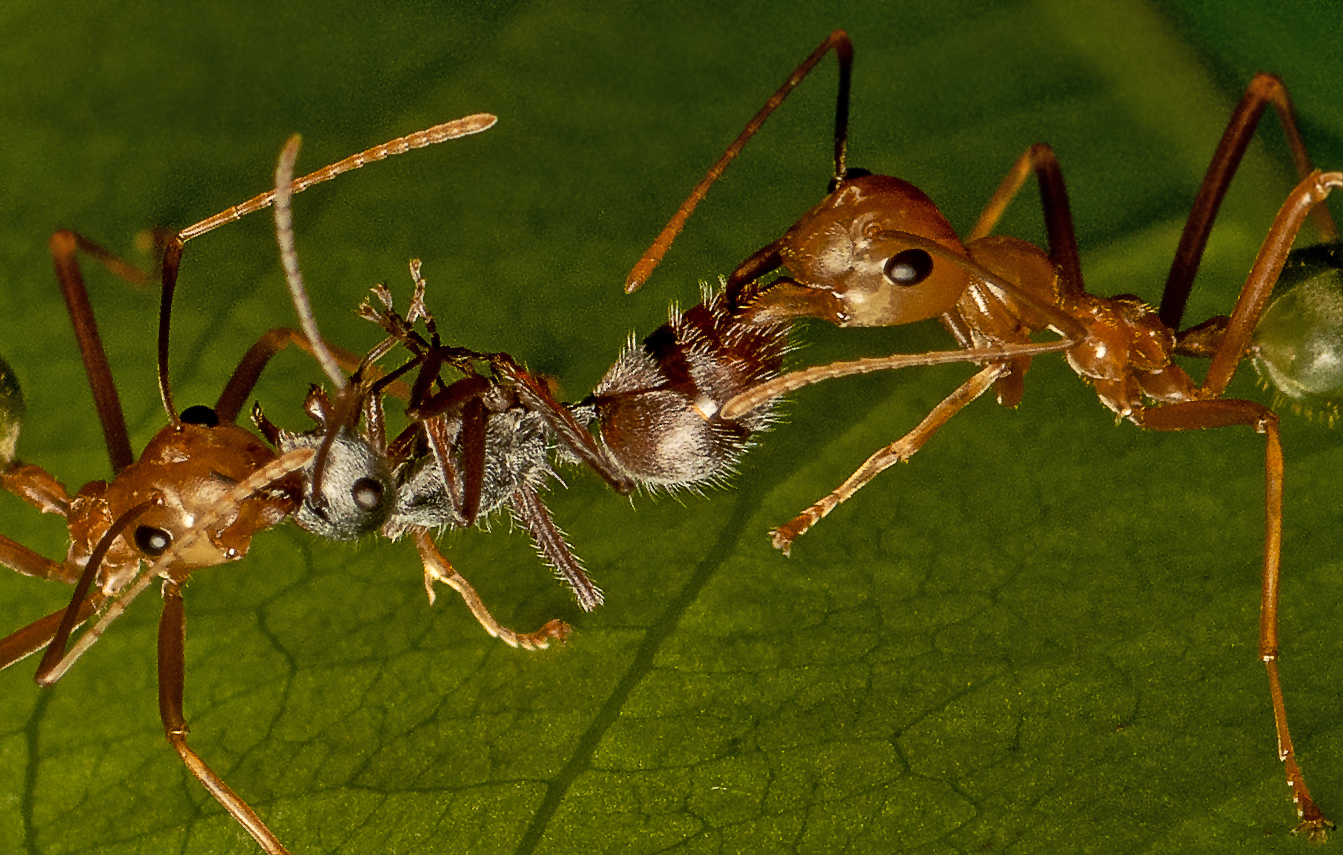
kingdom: Animalia
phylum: Arthropoda
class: Insecta
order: Hymenoptera
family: Formicidae
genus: Polyrhachis
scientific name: Polyrhachis bicolor
